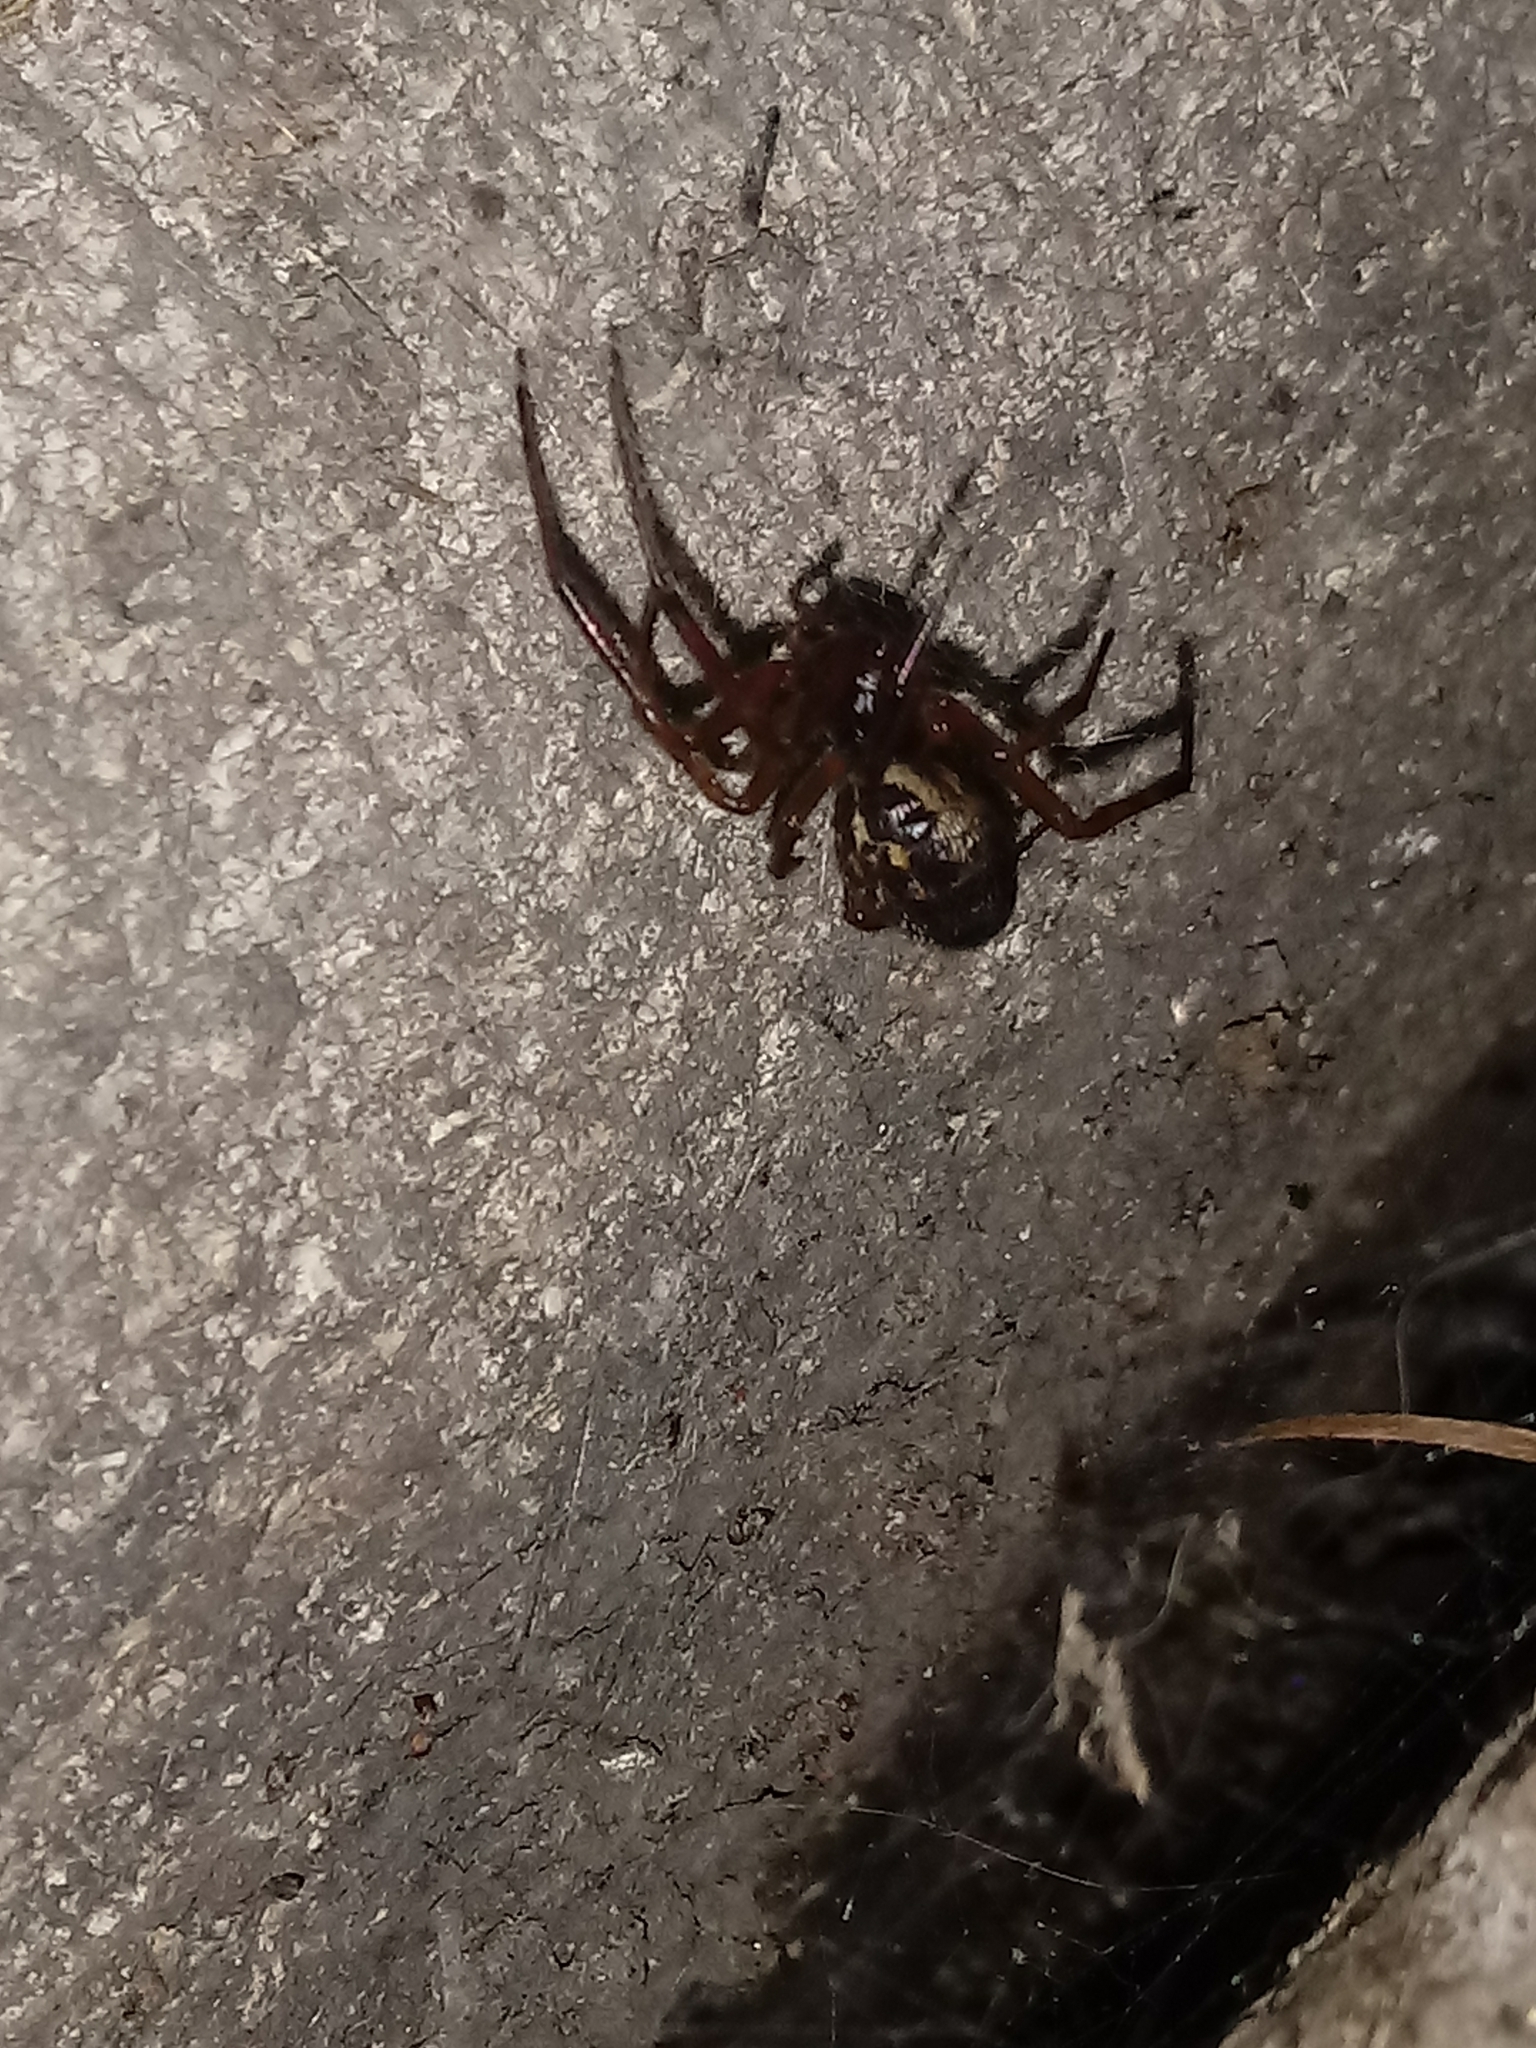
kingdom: Animalia
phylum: Arthropoda
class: Arachnida
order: Araneae
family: Theridiidae
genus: Steatoda
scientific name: Steatoda nobilis
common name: Cobweb weaver
